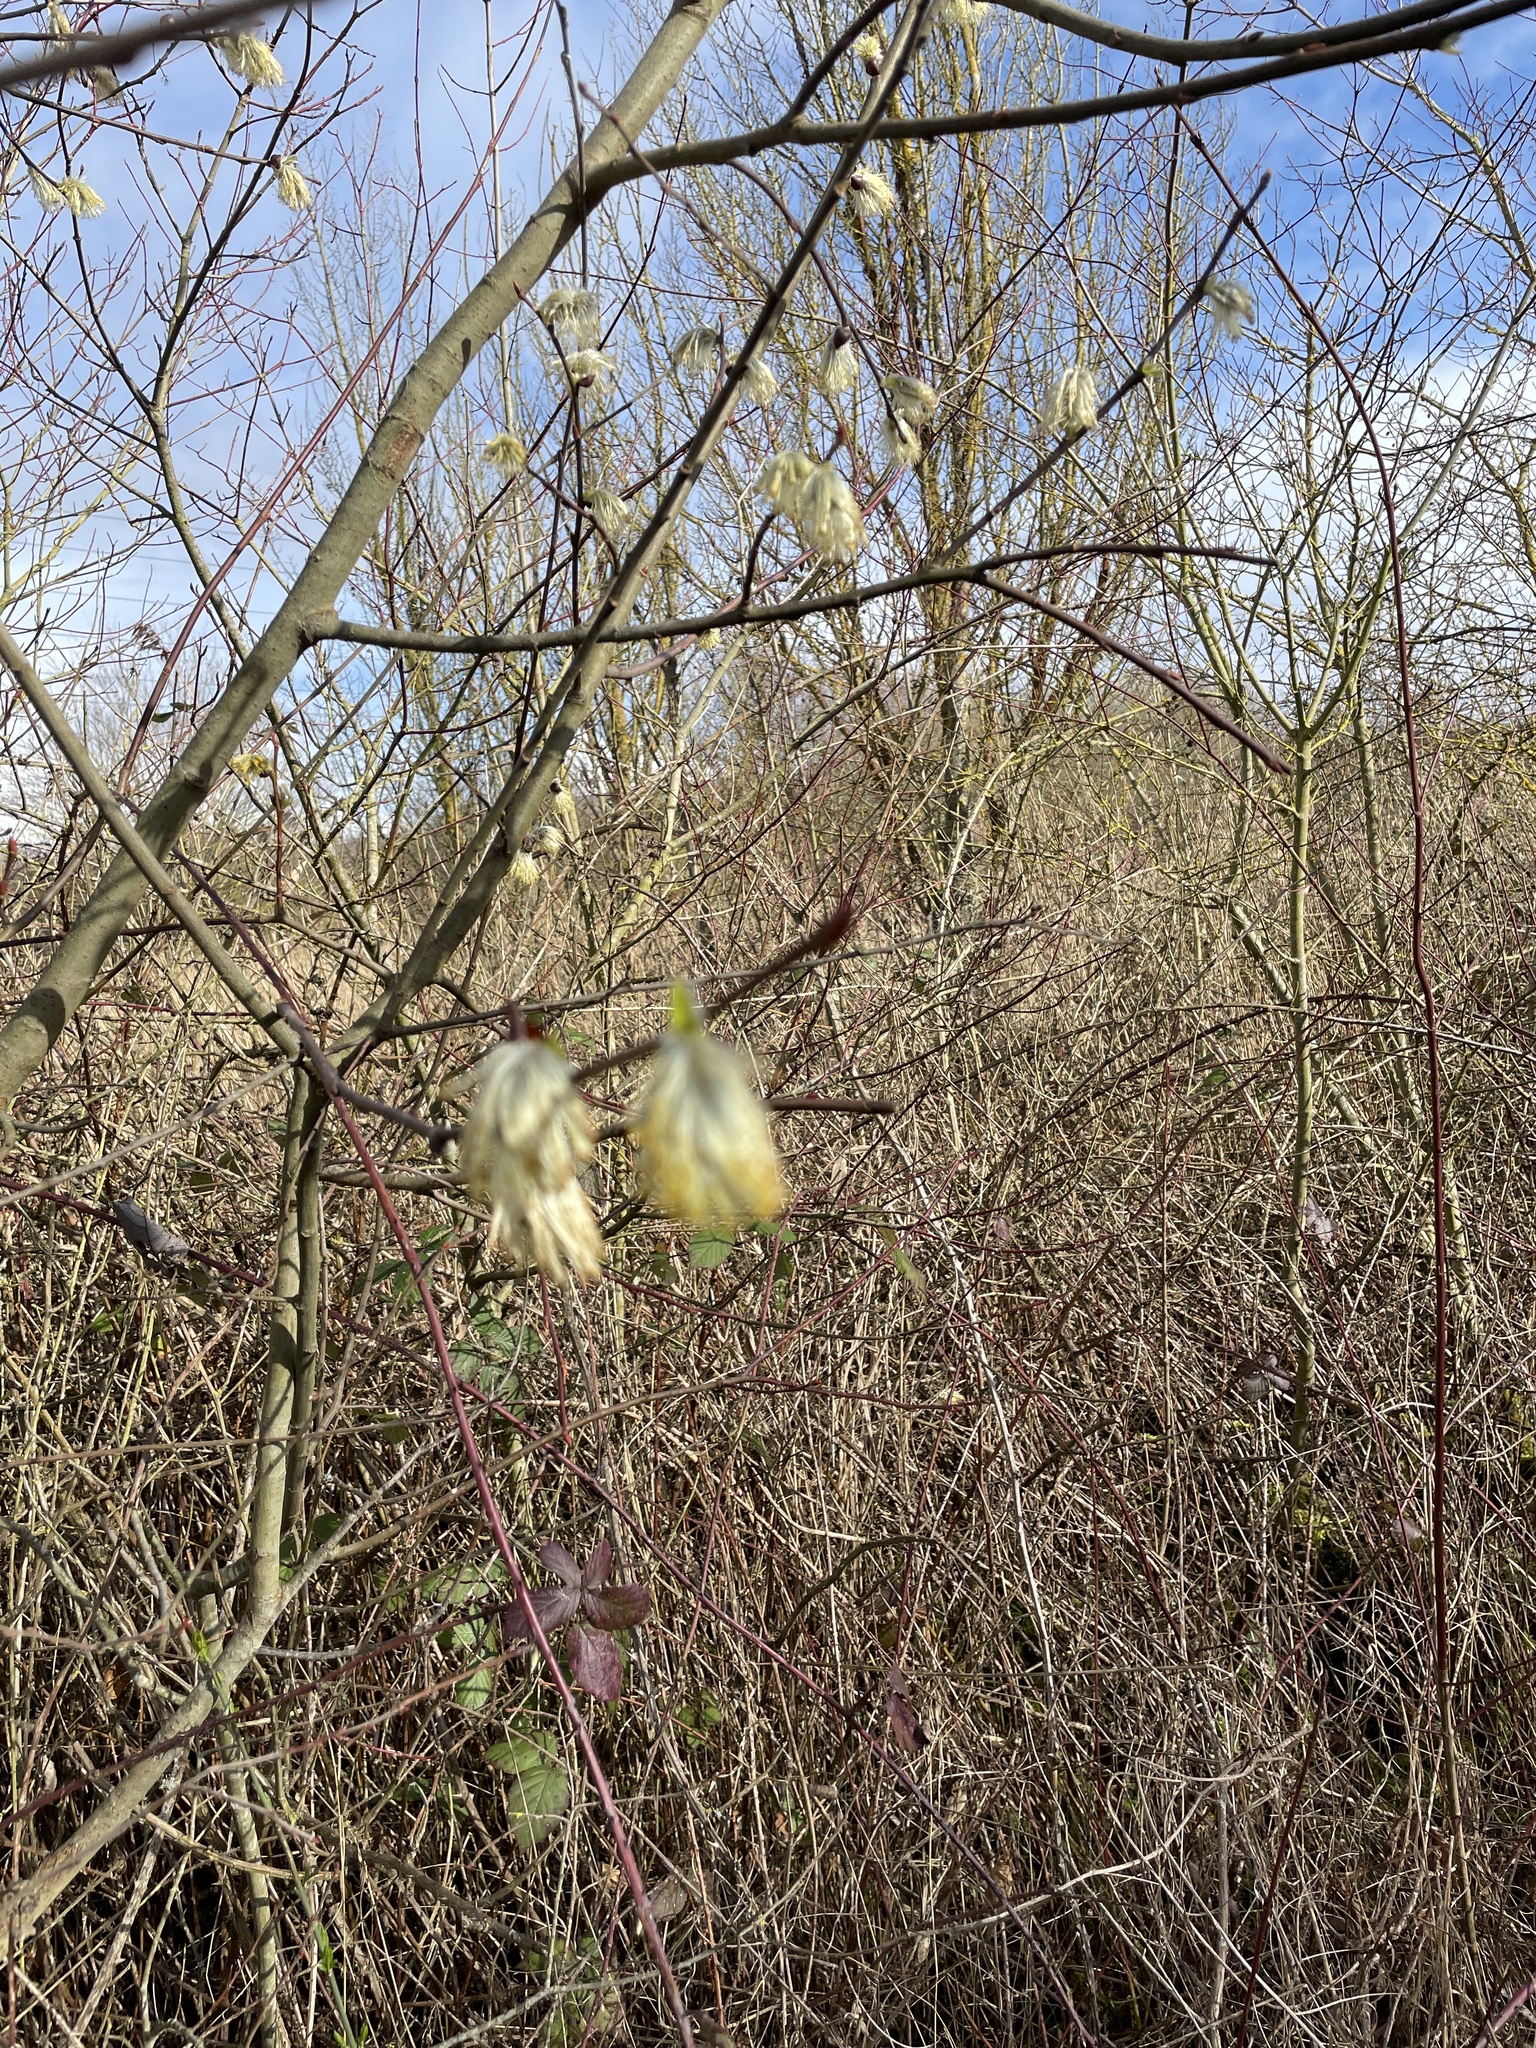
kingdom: Plantae
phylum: Tracheophyta
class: Magnoliopsida
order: Malpighiales
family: Salicaceae
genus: Salix
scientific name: Salix caprea
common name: Goat willow
